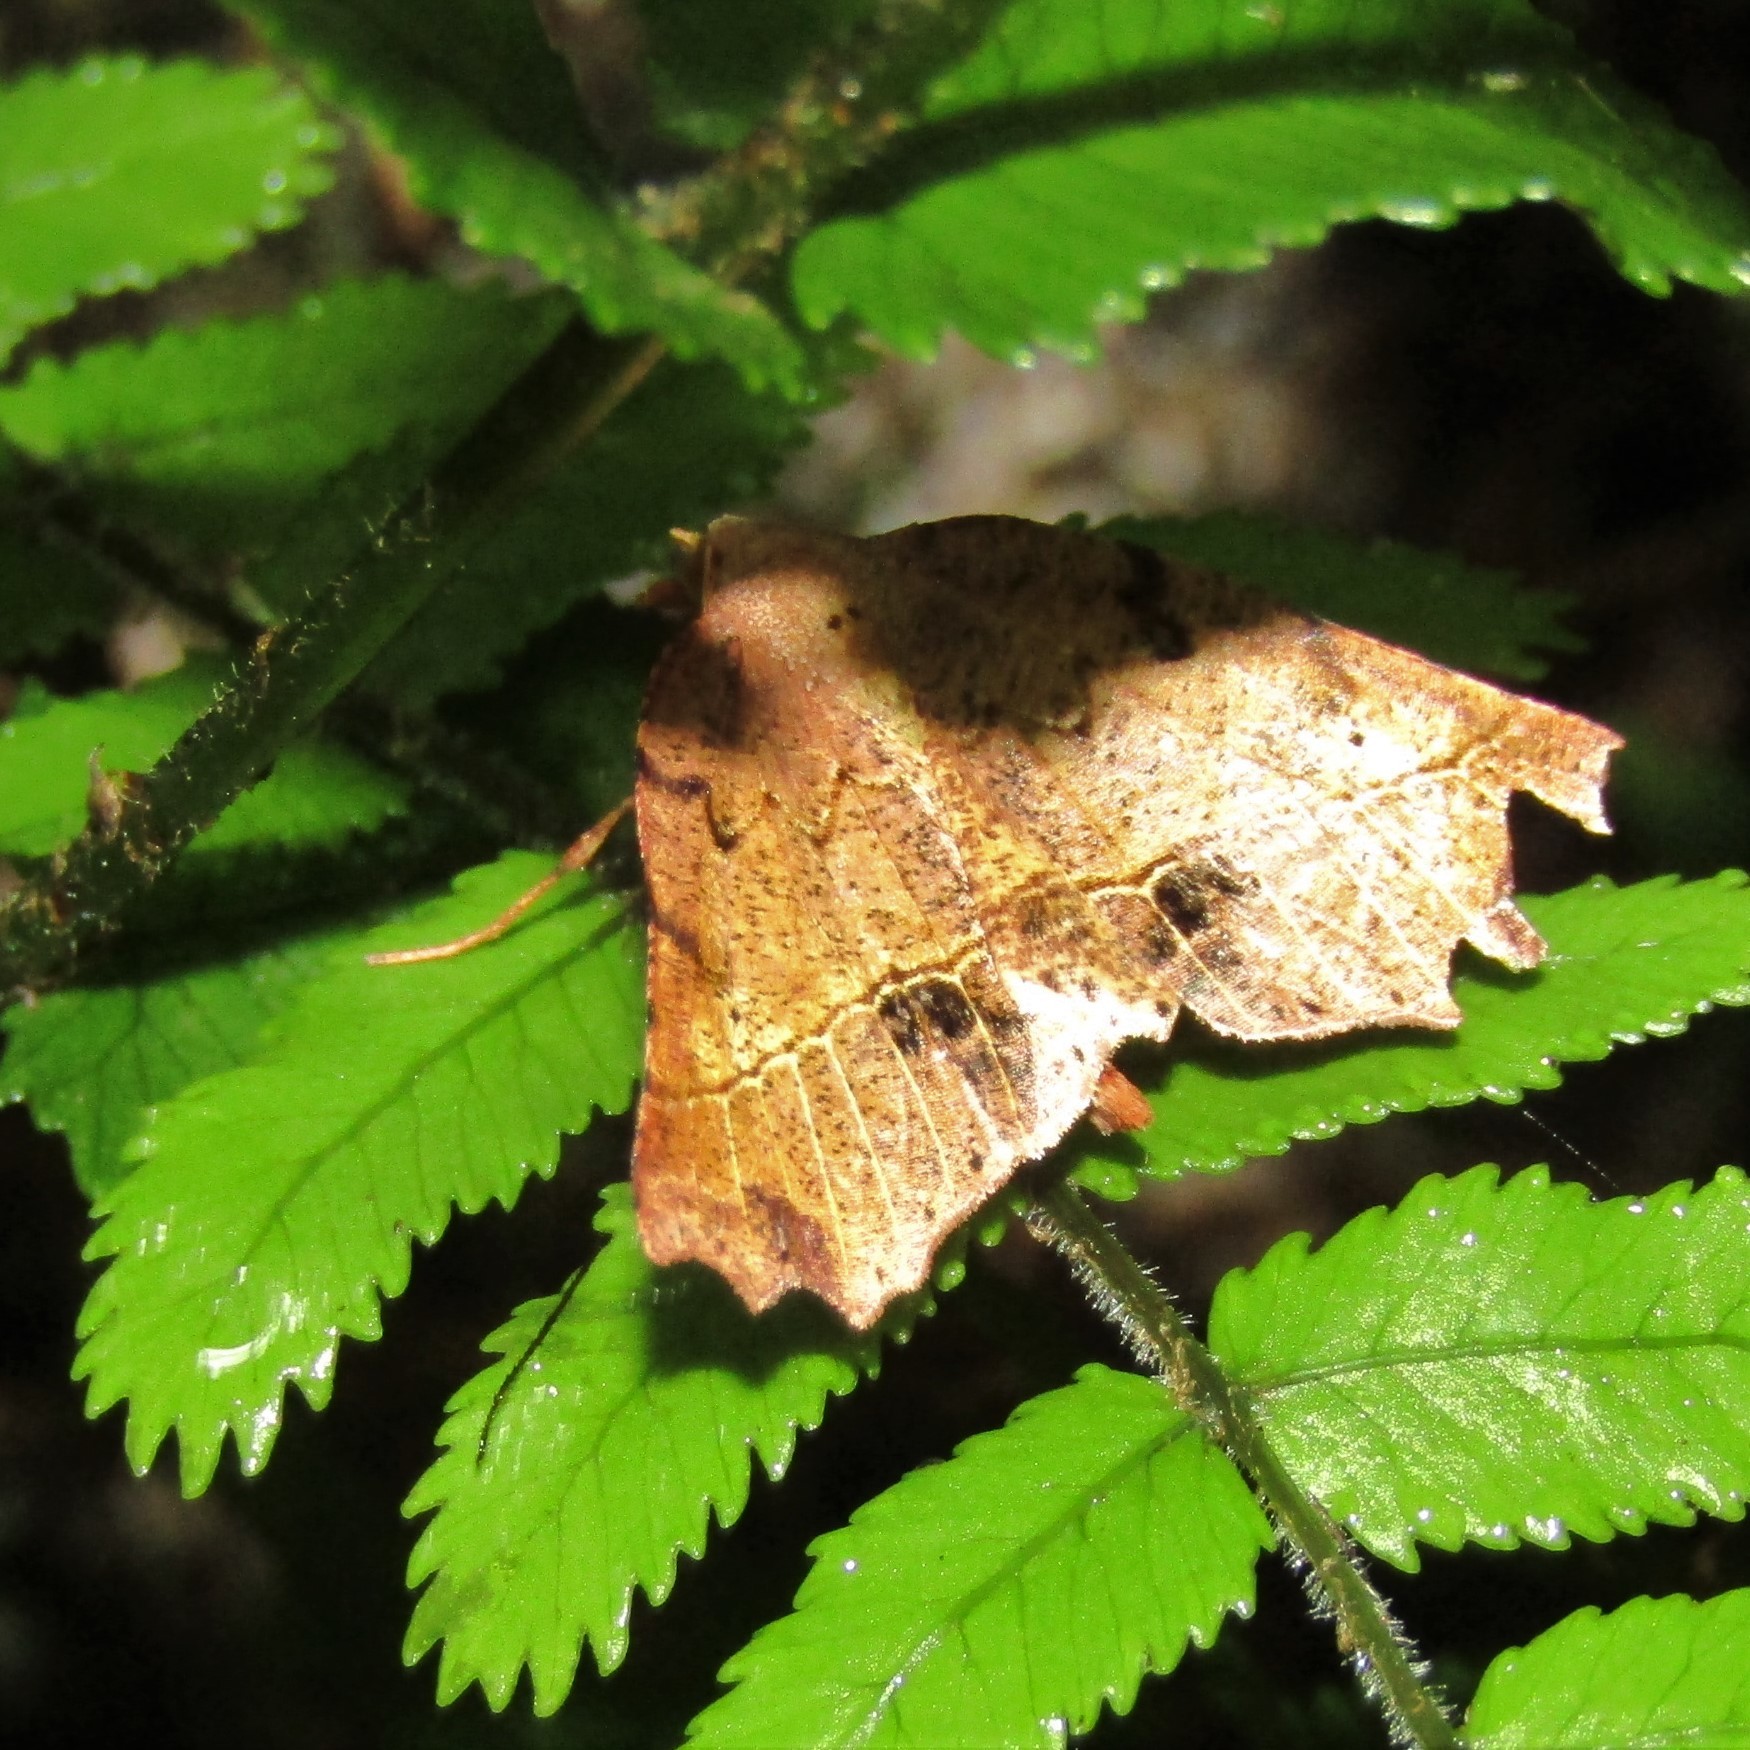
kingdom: Animalia
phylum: Arthropoda
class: Insecta
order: Lepidoptera
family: Geometridae
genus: Ischalis
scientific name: Ischalis gallaria
